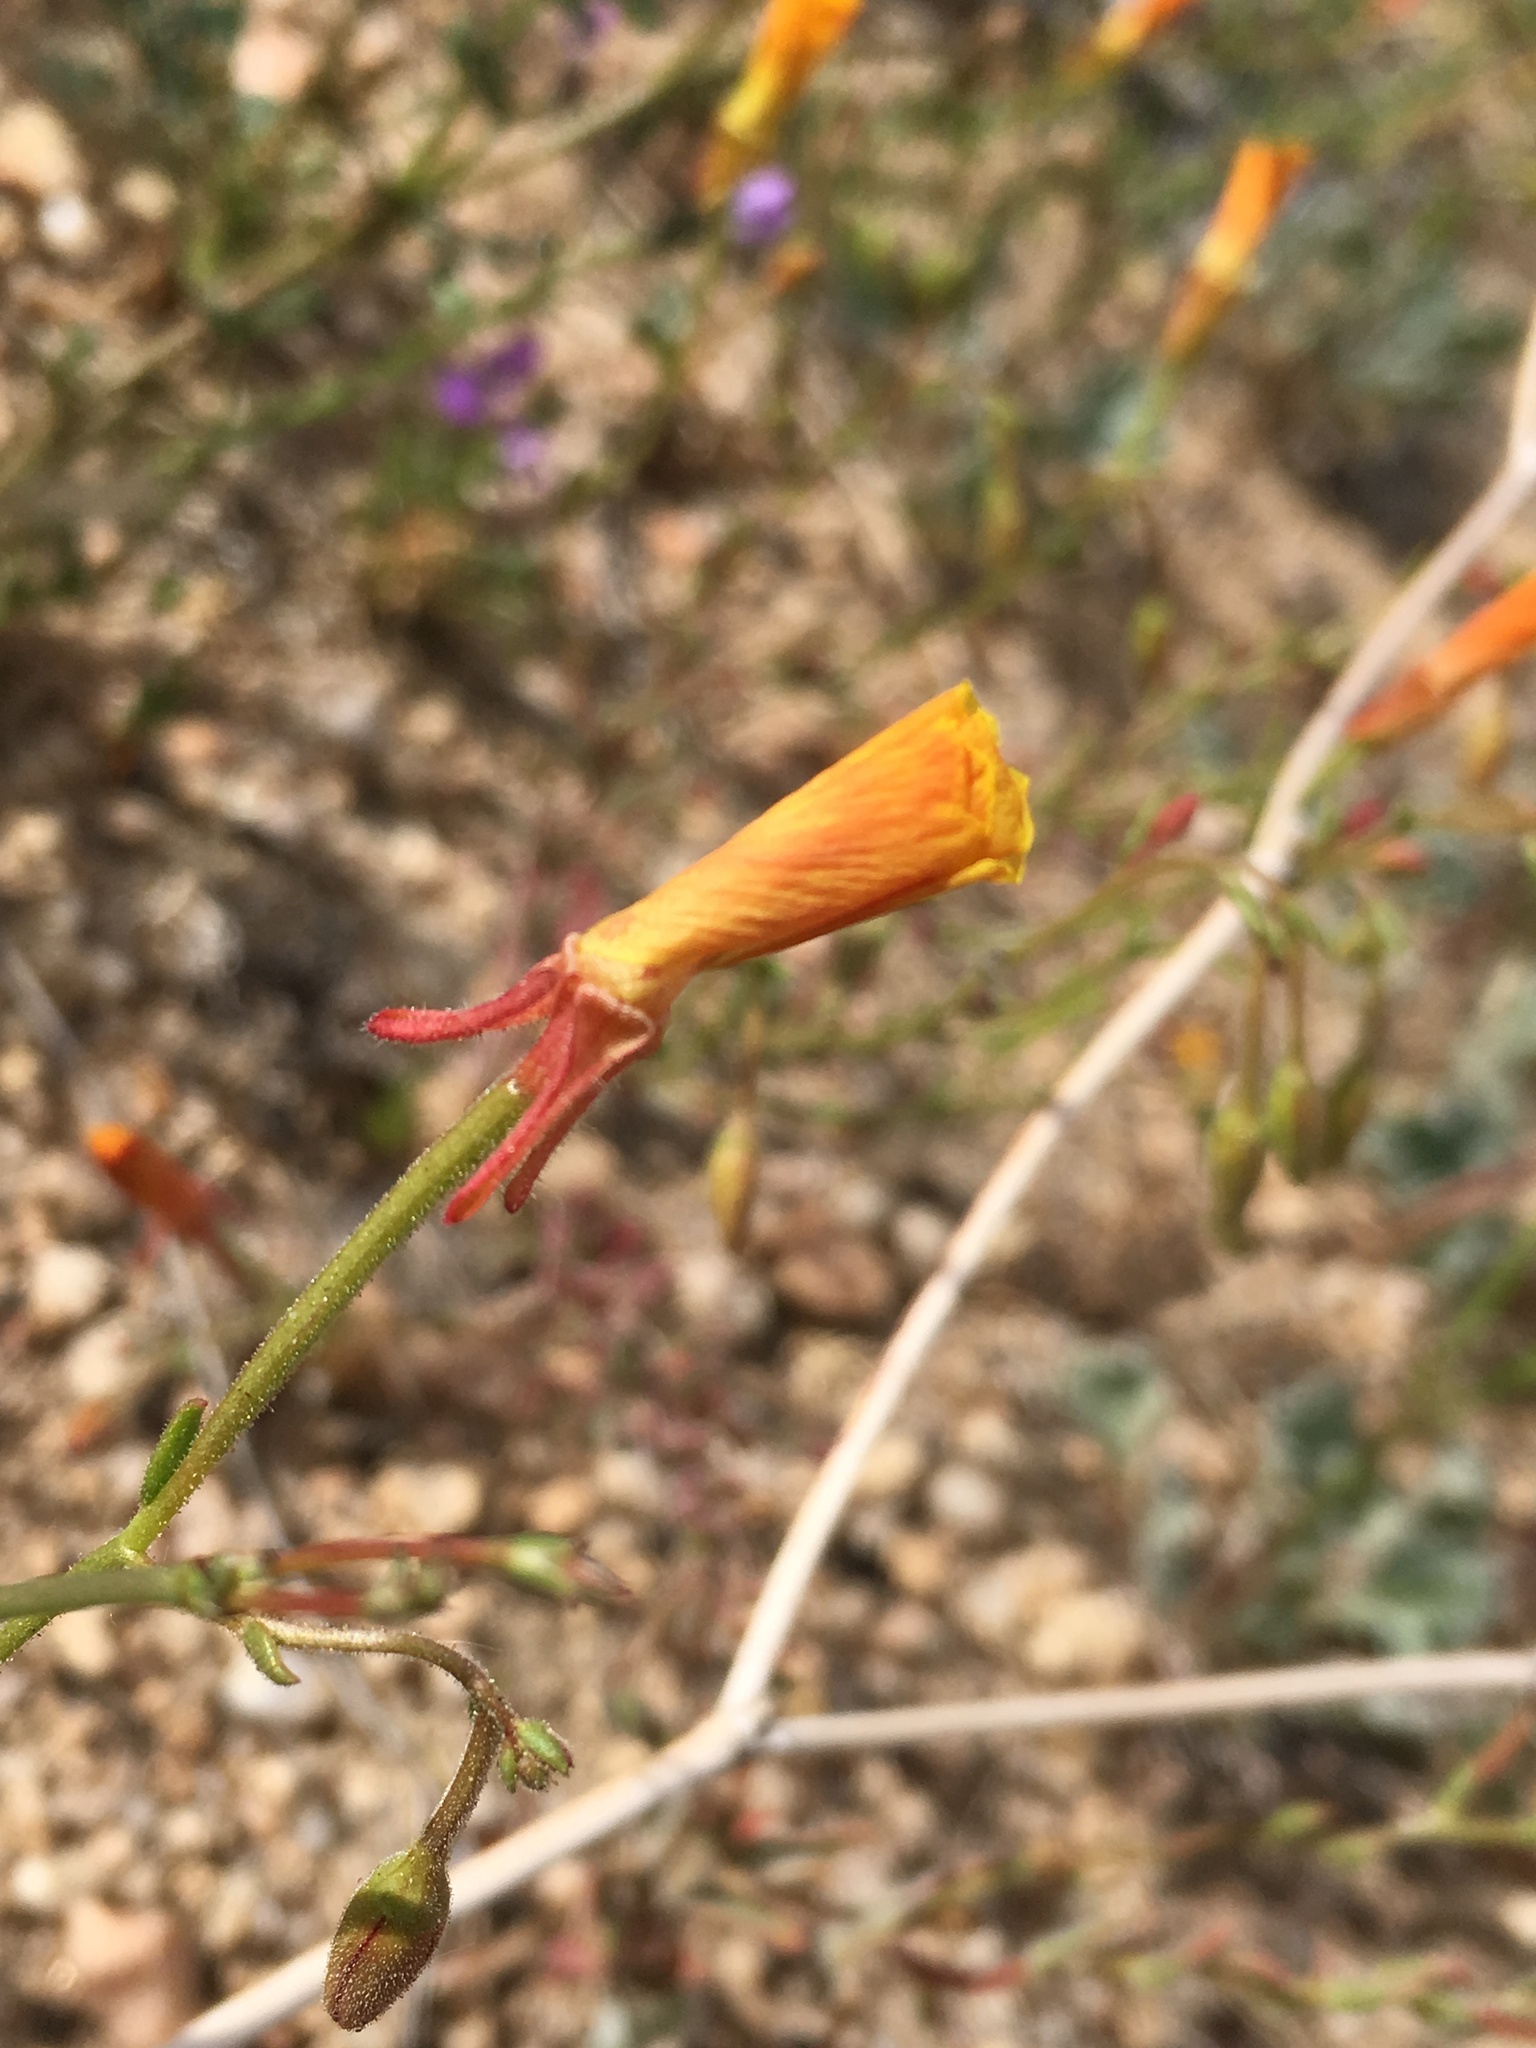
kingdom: Plantae
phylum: Tracheophyta
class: Magnoliopsida
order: Myrtales
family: Onagraceae
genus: Camissonia
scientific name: Camissonia kernensis
